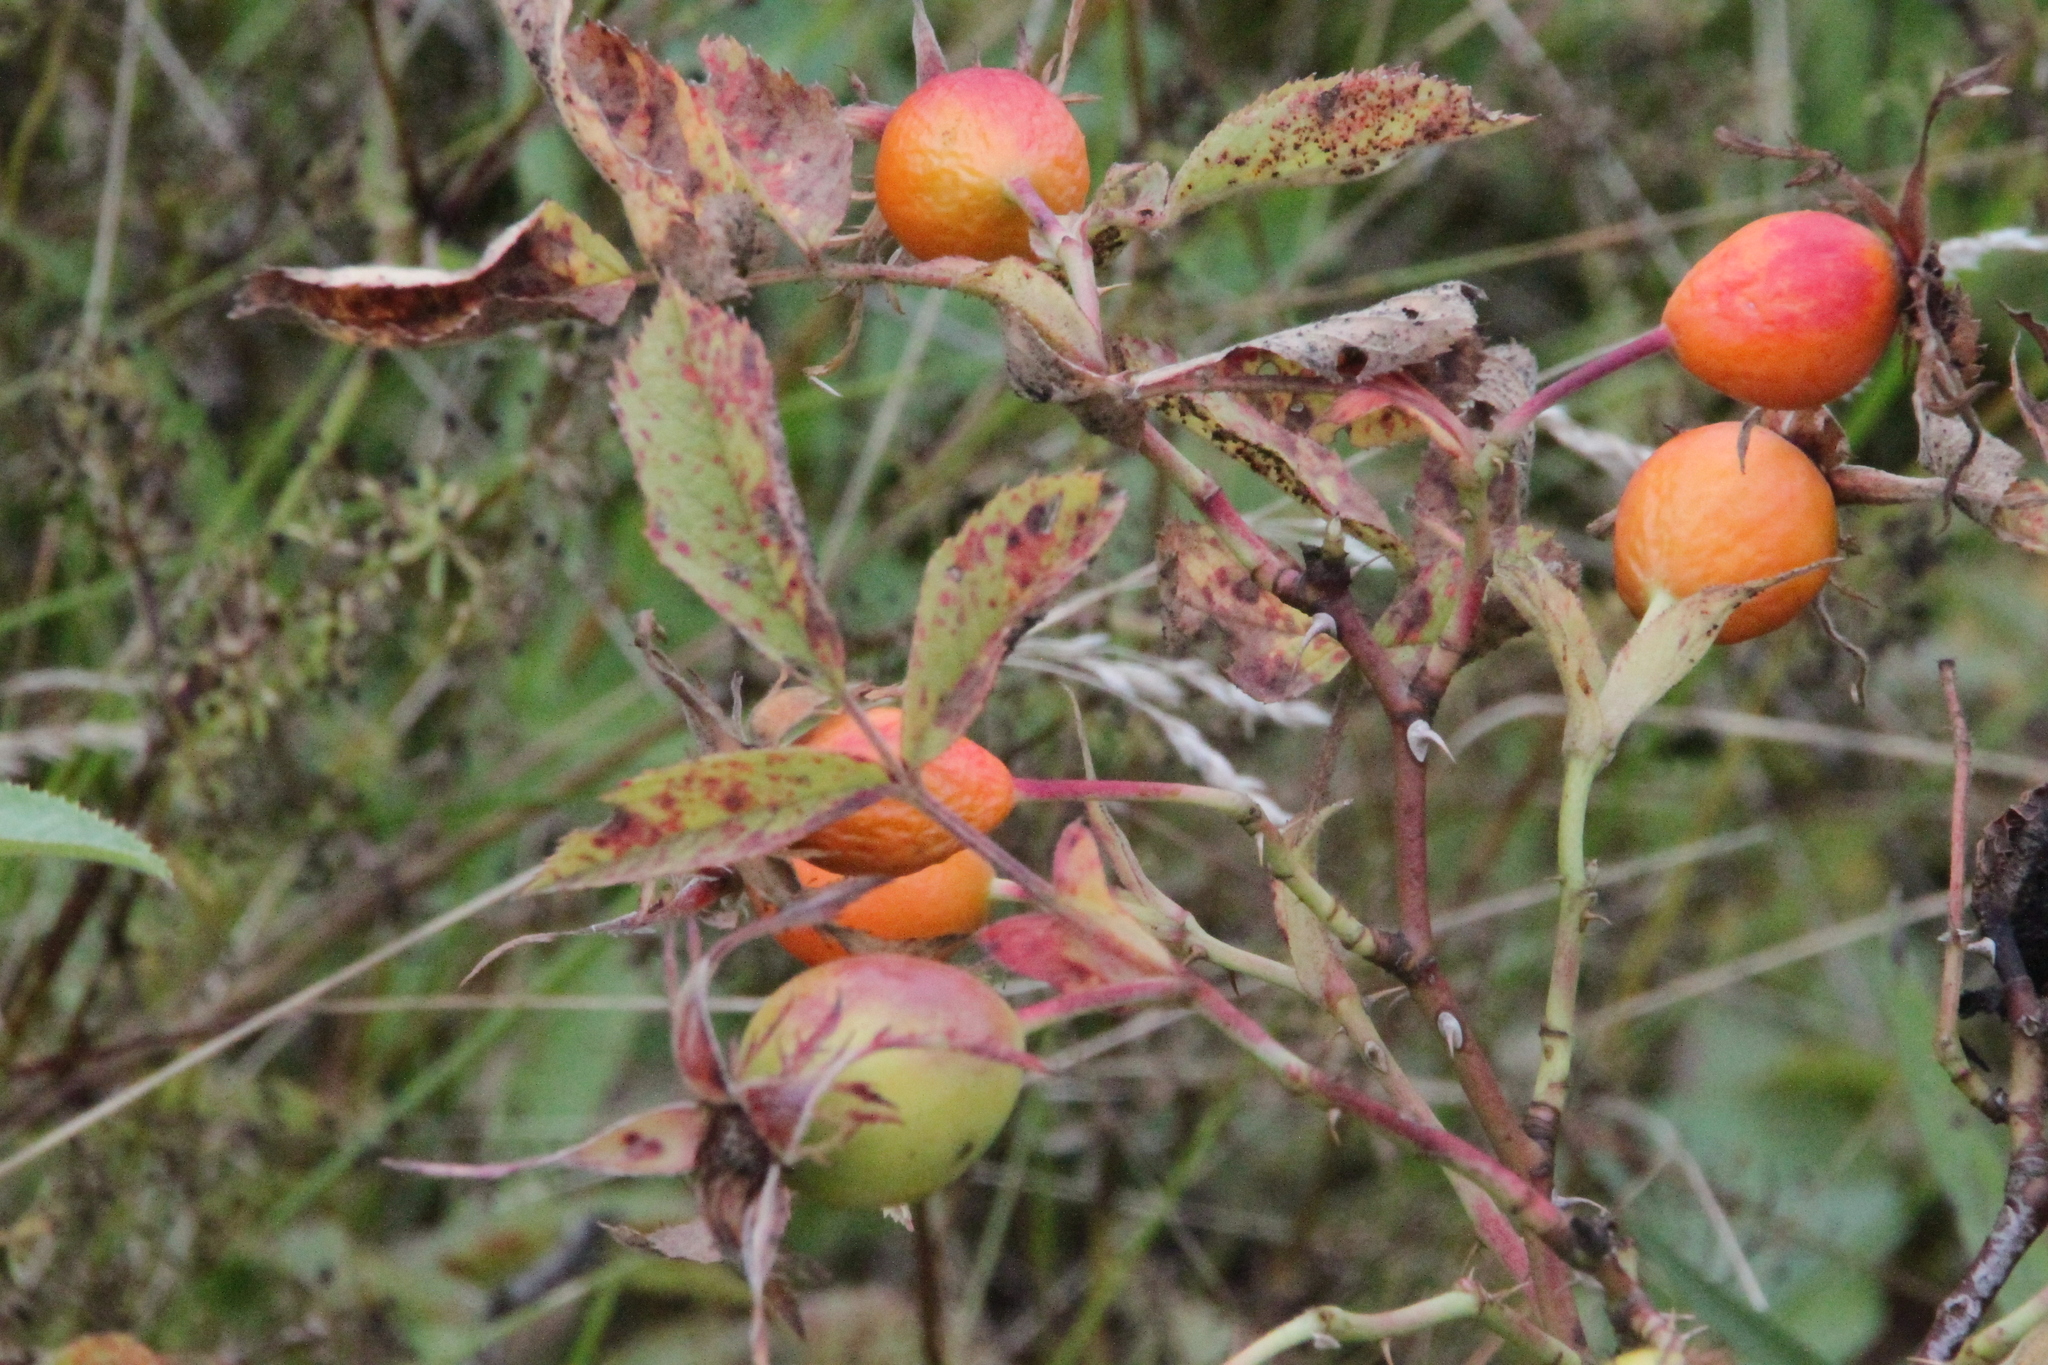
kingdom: Plantae
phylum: Tracheophyta
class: Magnoliopsida
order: Rosales
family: Rosaceae
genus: Rosa
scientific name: Rosa
